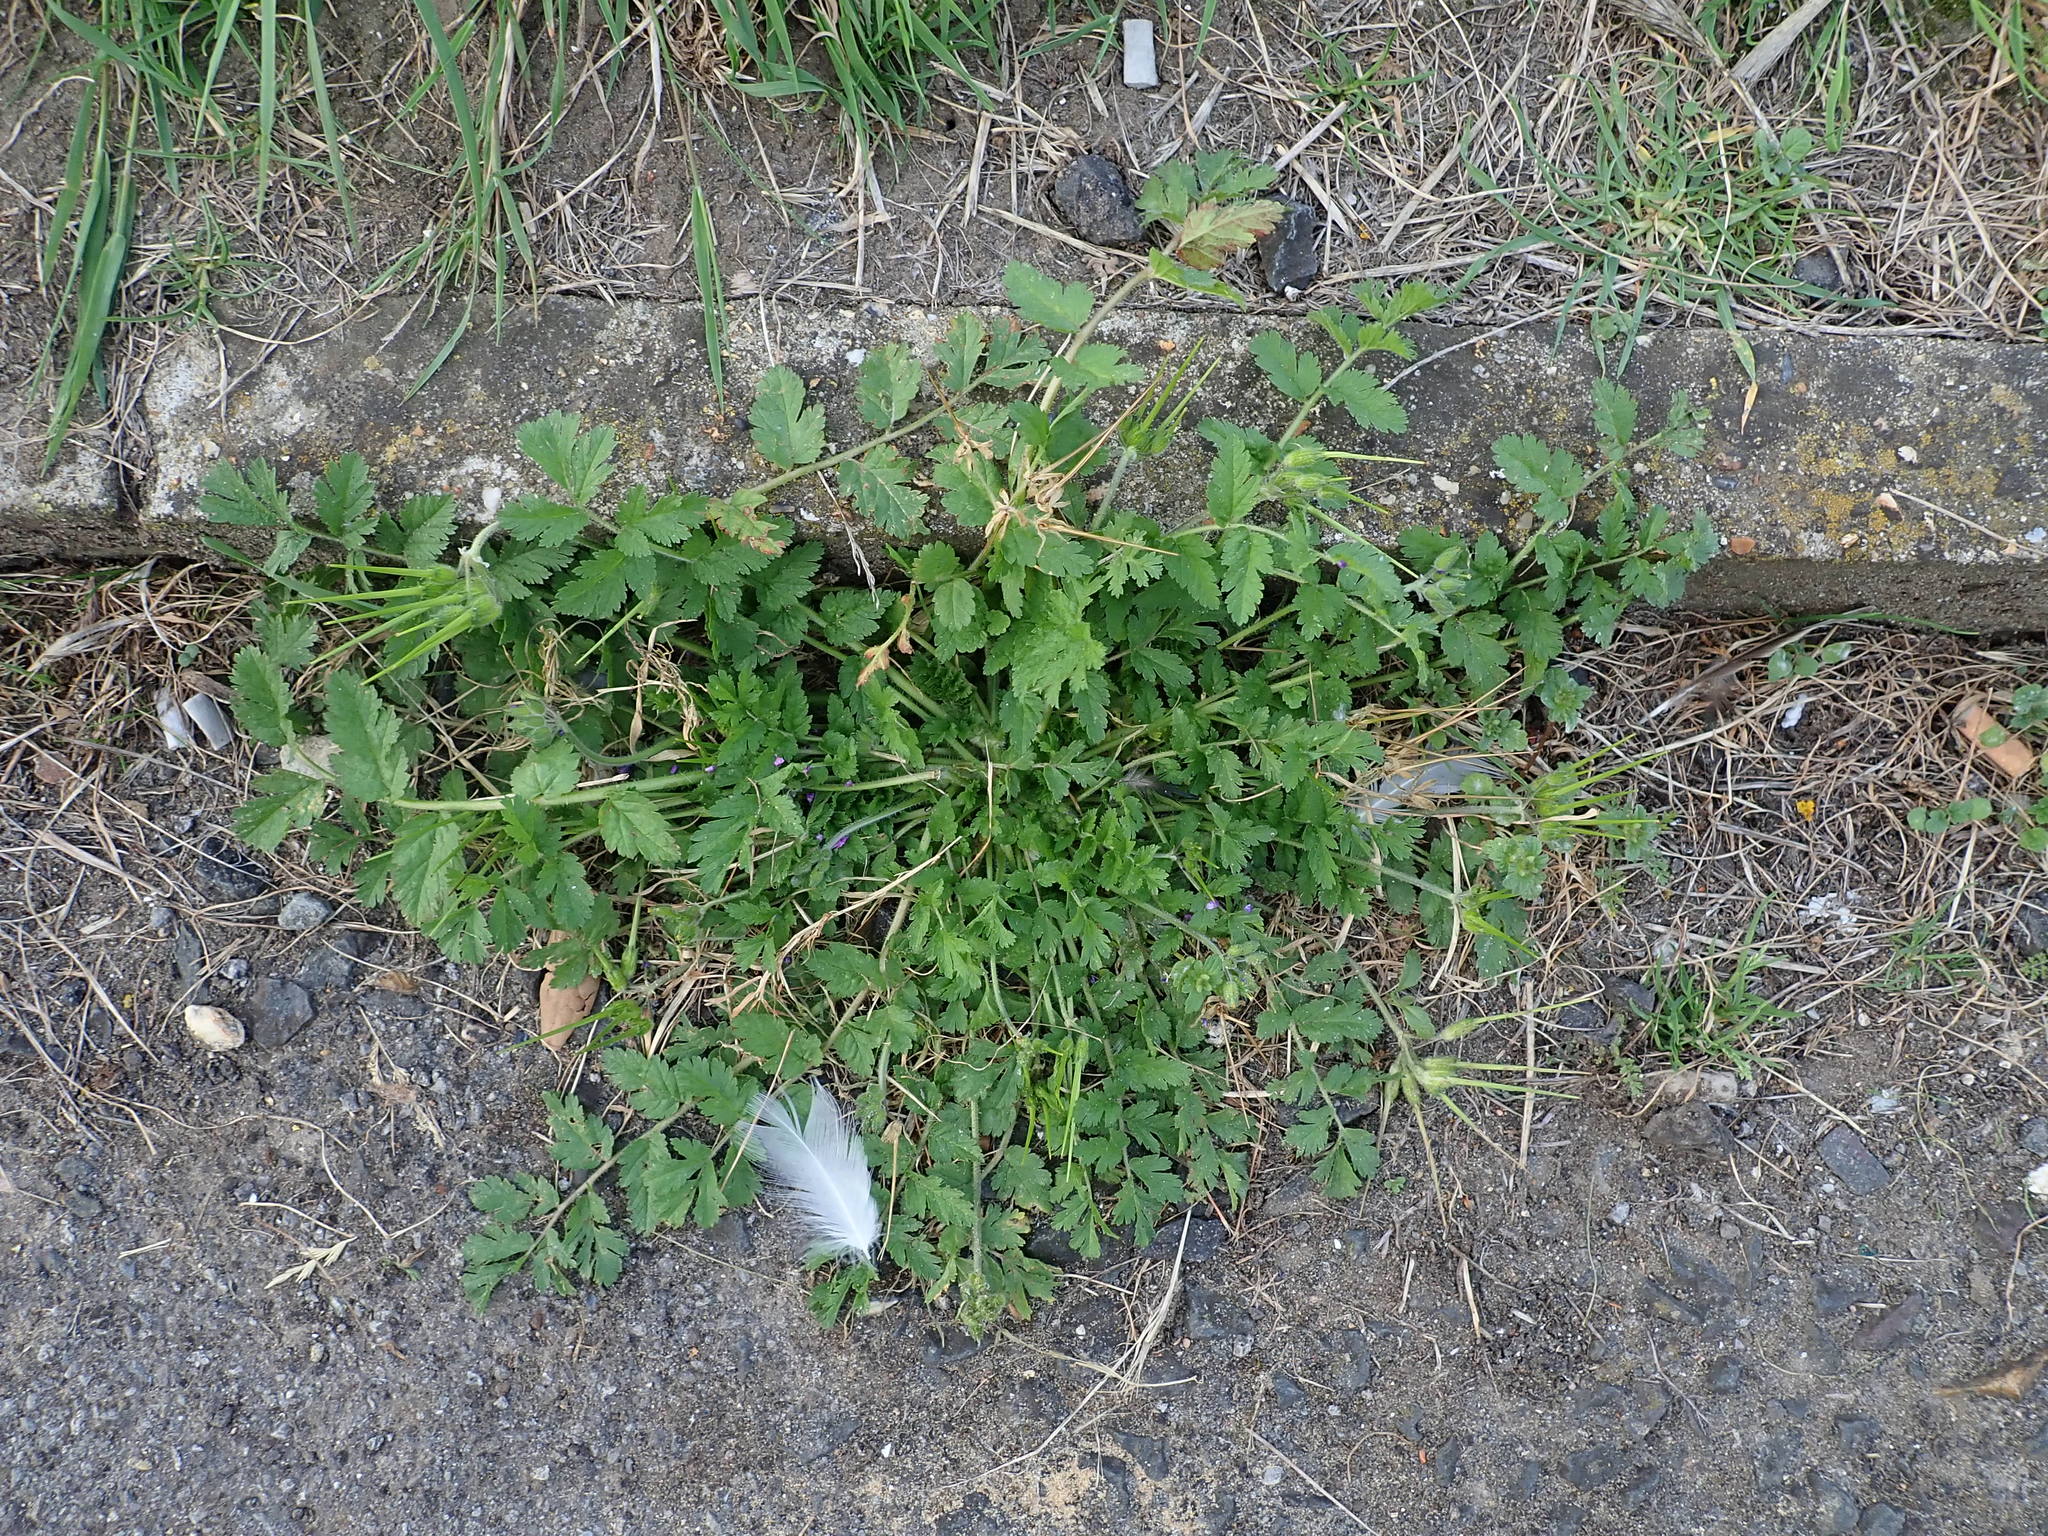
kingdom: Plantae
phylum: Tracheophyta
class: Magnoliopsida
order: Geraniales
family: Geraniaceae
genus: Erodium
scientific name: Erodium moschatum
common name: Musk stork's-bill
